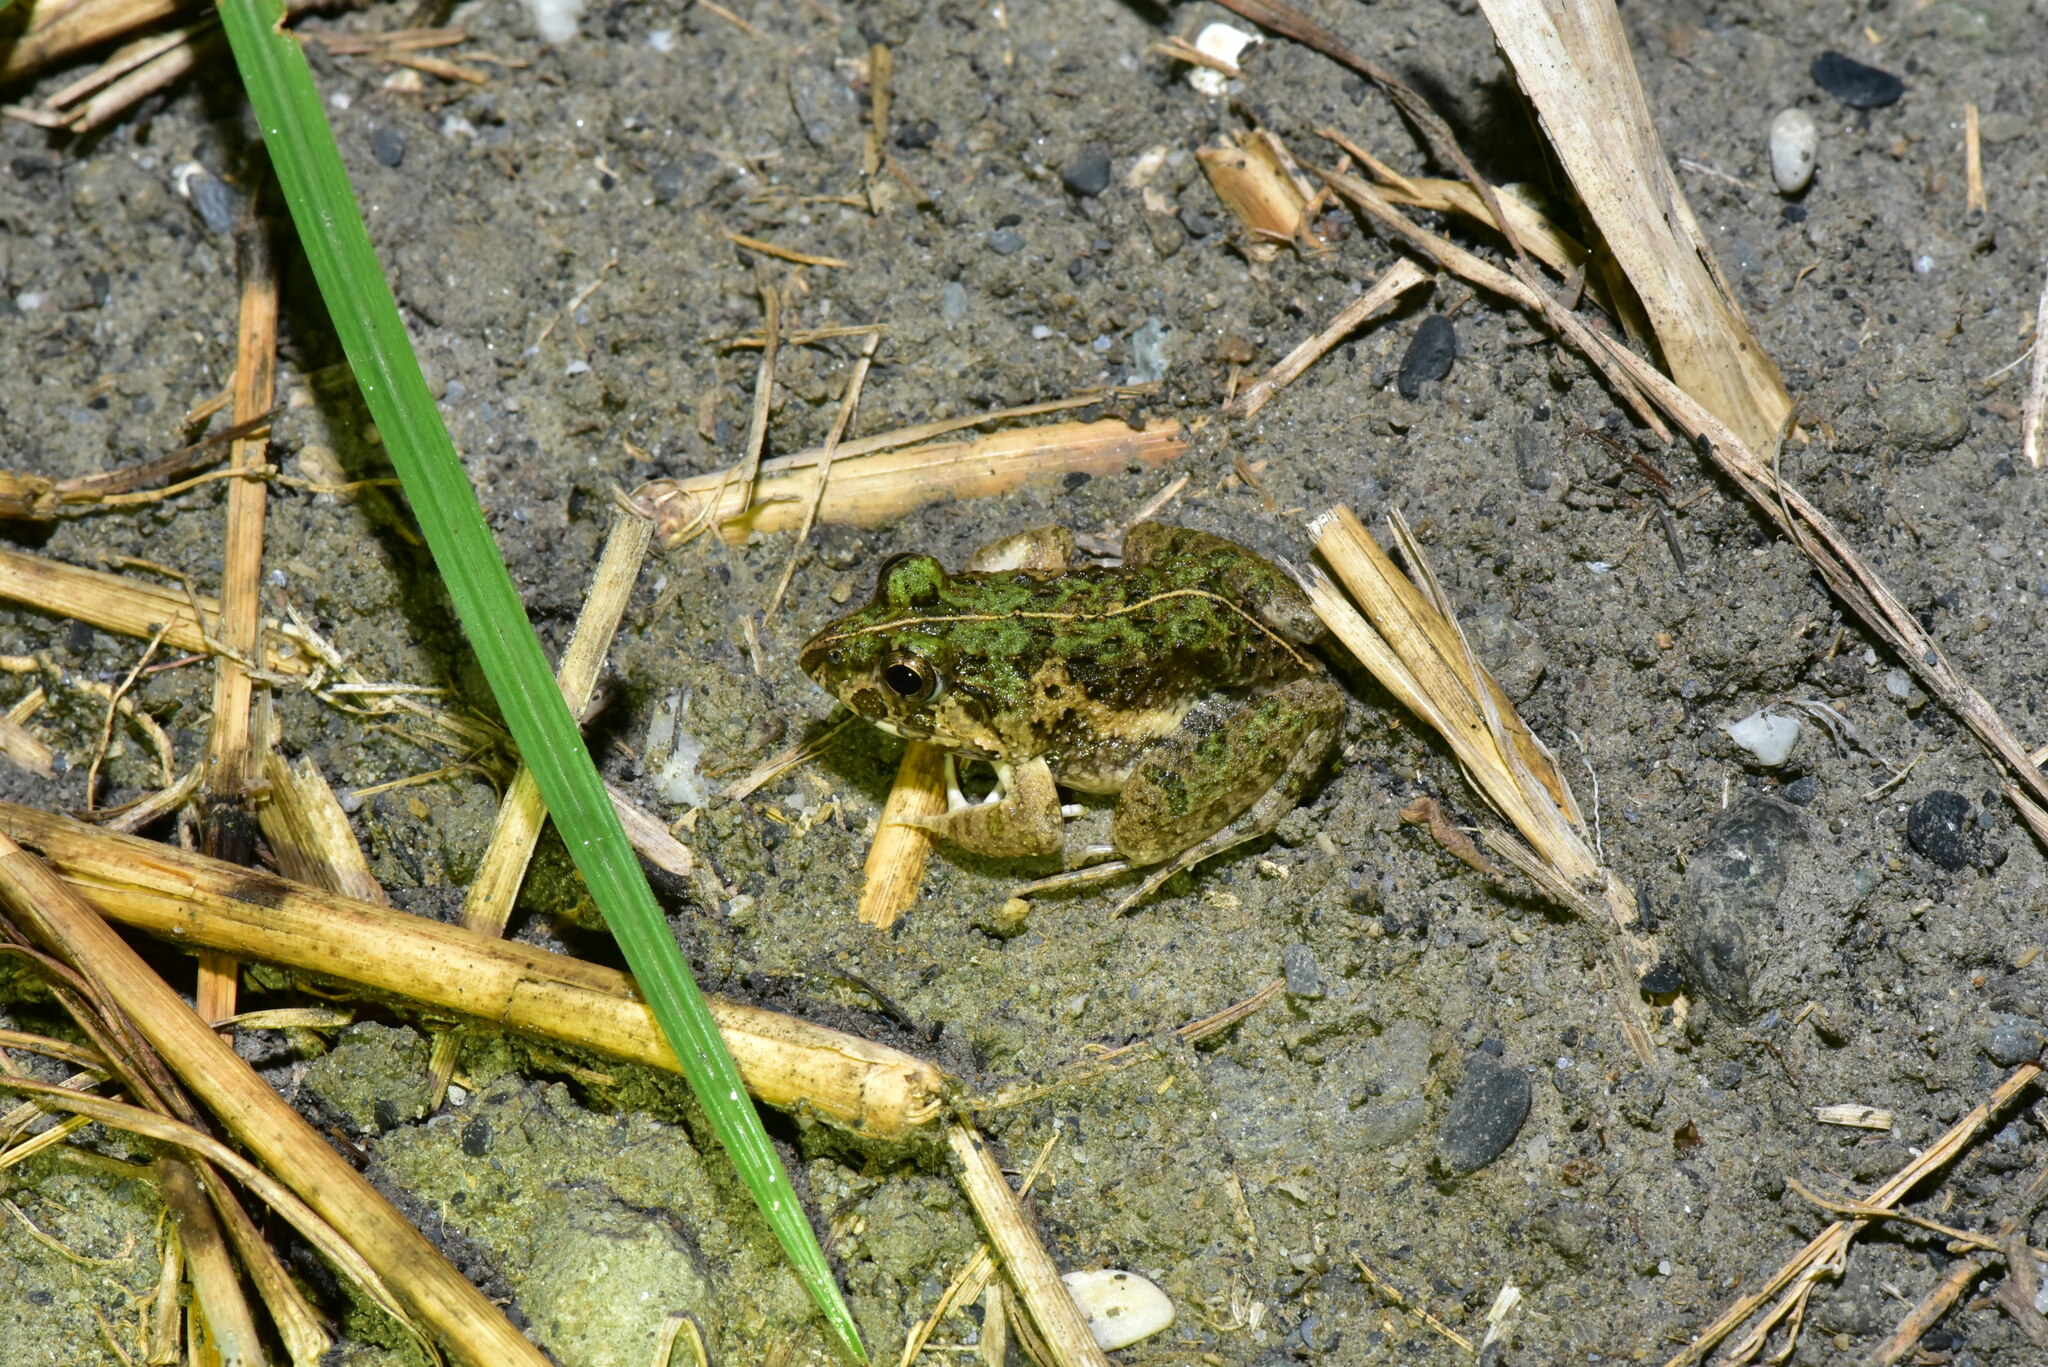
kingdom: Animalia
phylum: Chordata
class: Amphibia
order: Anura
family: Dicroglossidae
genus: Fejervarya
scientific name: Fejervarya limnocharis
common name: Asian grass frog/common pond frog/field frog/grass frog/indian rice frog
